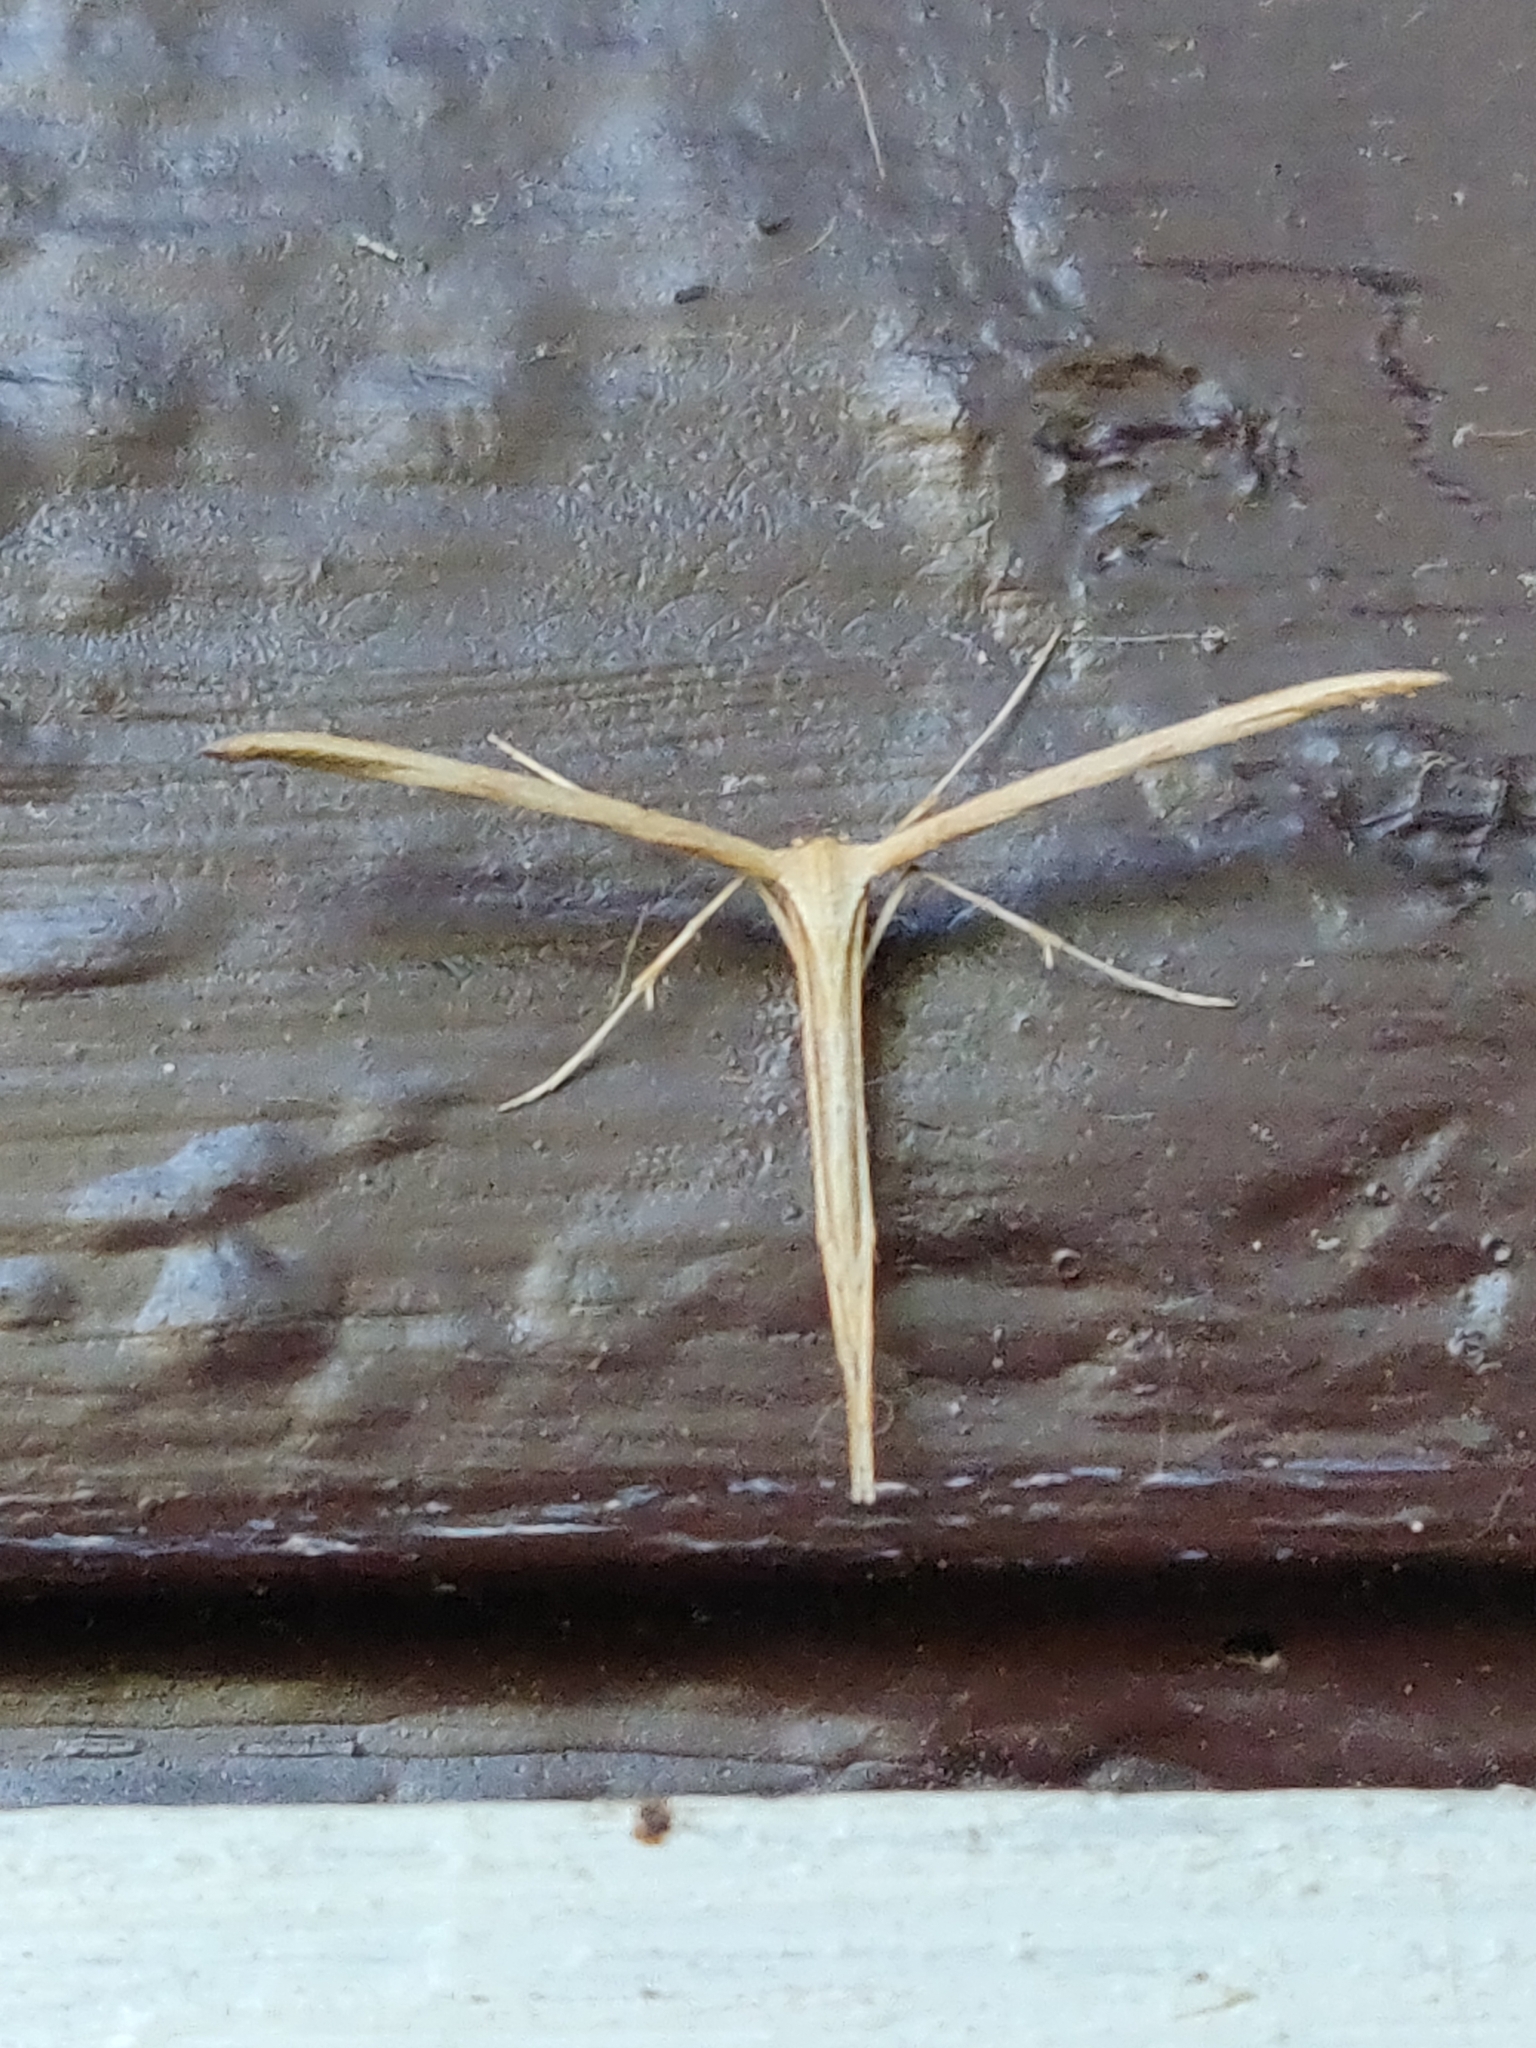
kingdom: Animalia
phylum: Arthropoda
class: Insecta
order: Lepidoptera
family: Pterophoridae
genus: Emmelina
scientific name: Emmelina monodactyla
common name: Common plume
